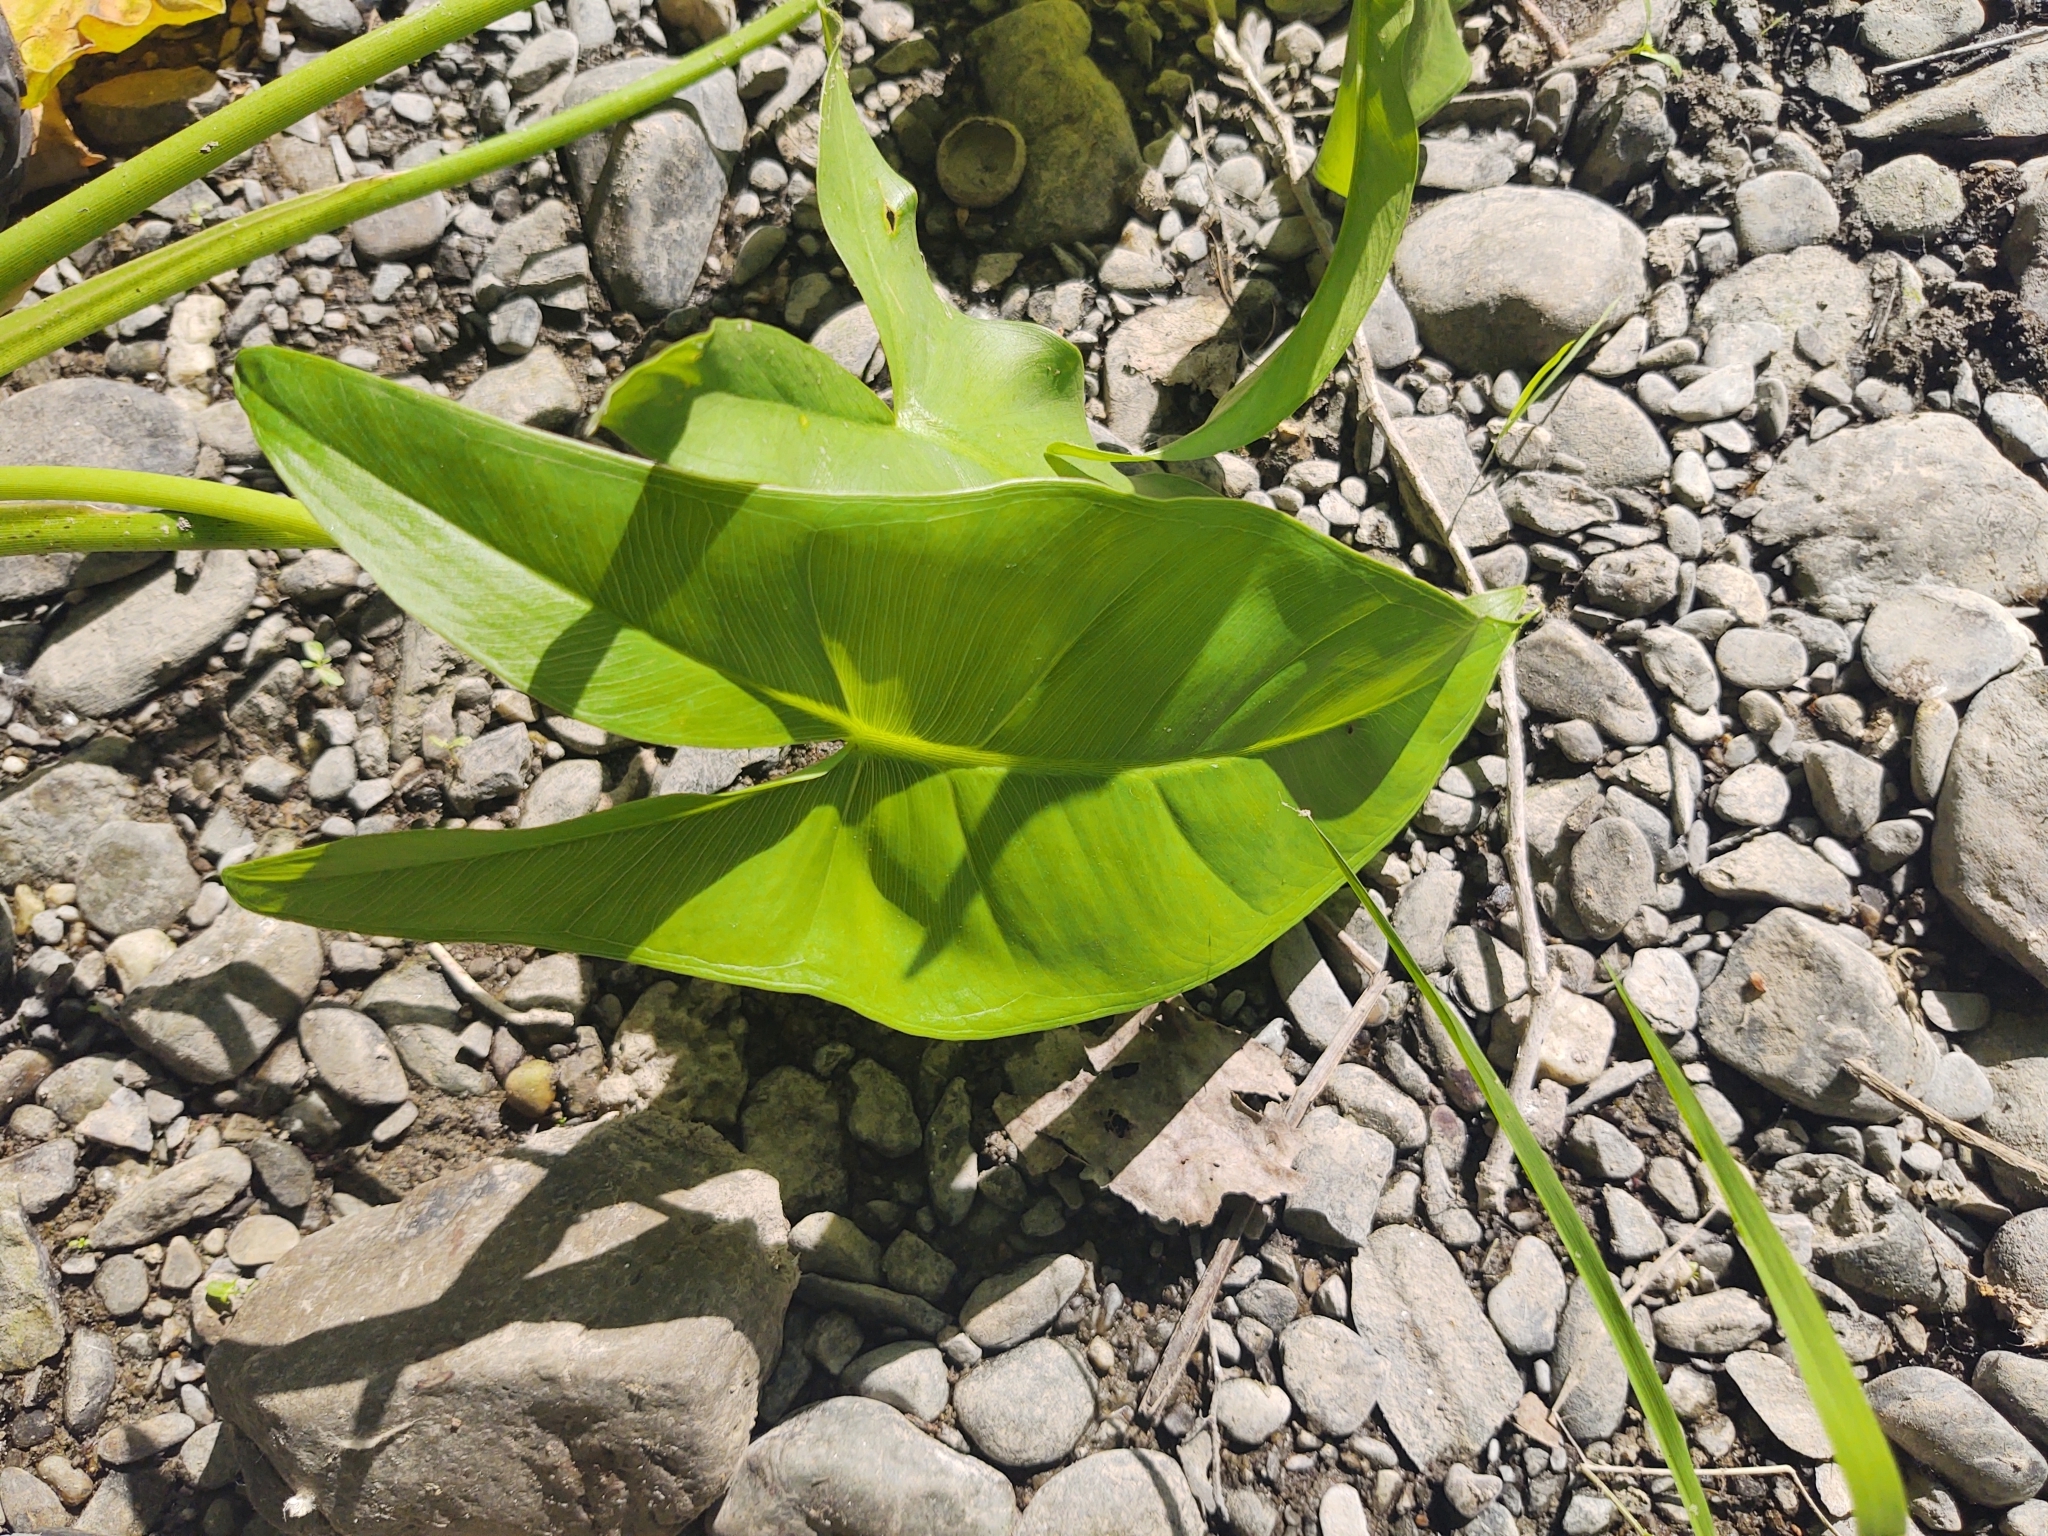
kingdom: Plantae
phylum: Tracheophyta
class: Liliopsida
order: Alismatales
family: Araceae
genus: Peltandra
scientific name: Peltandra virginica
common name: Arrow arum
